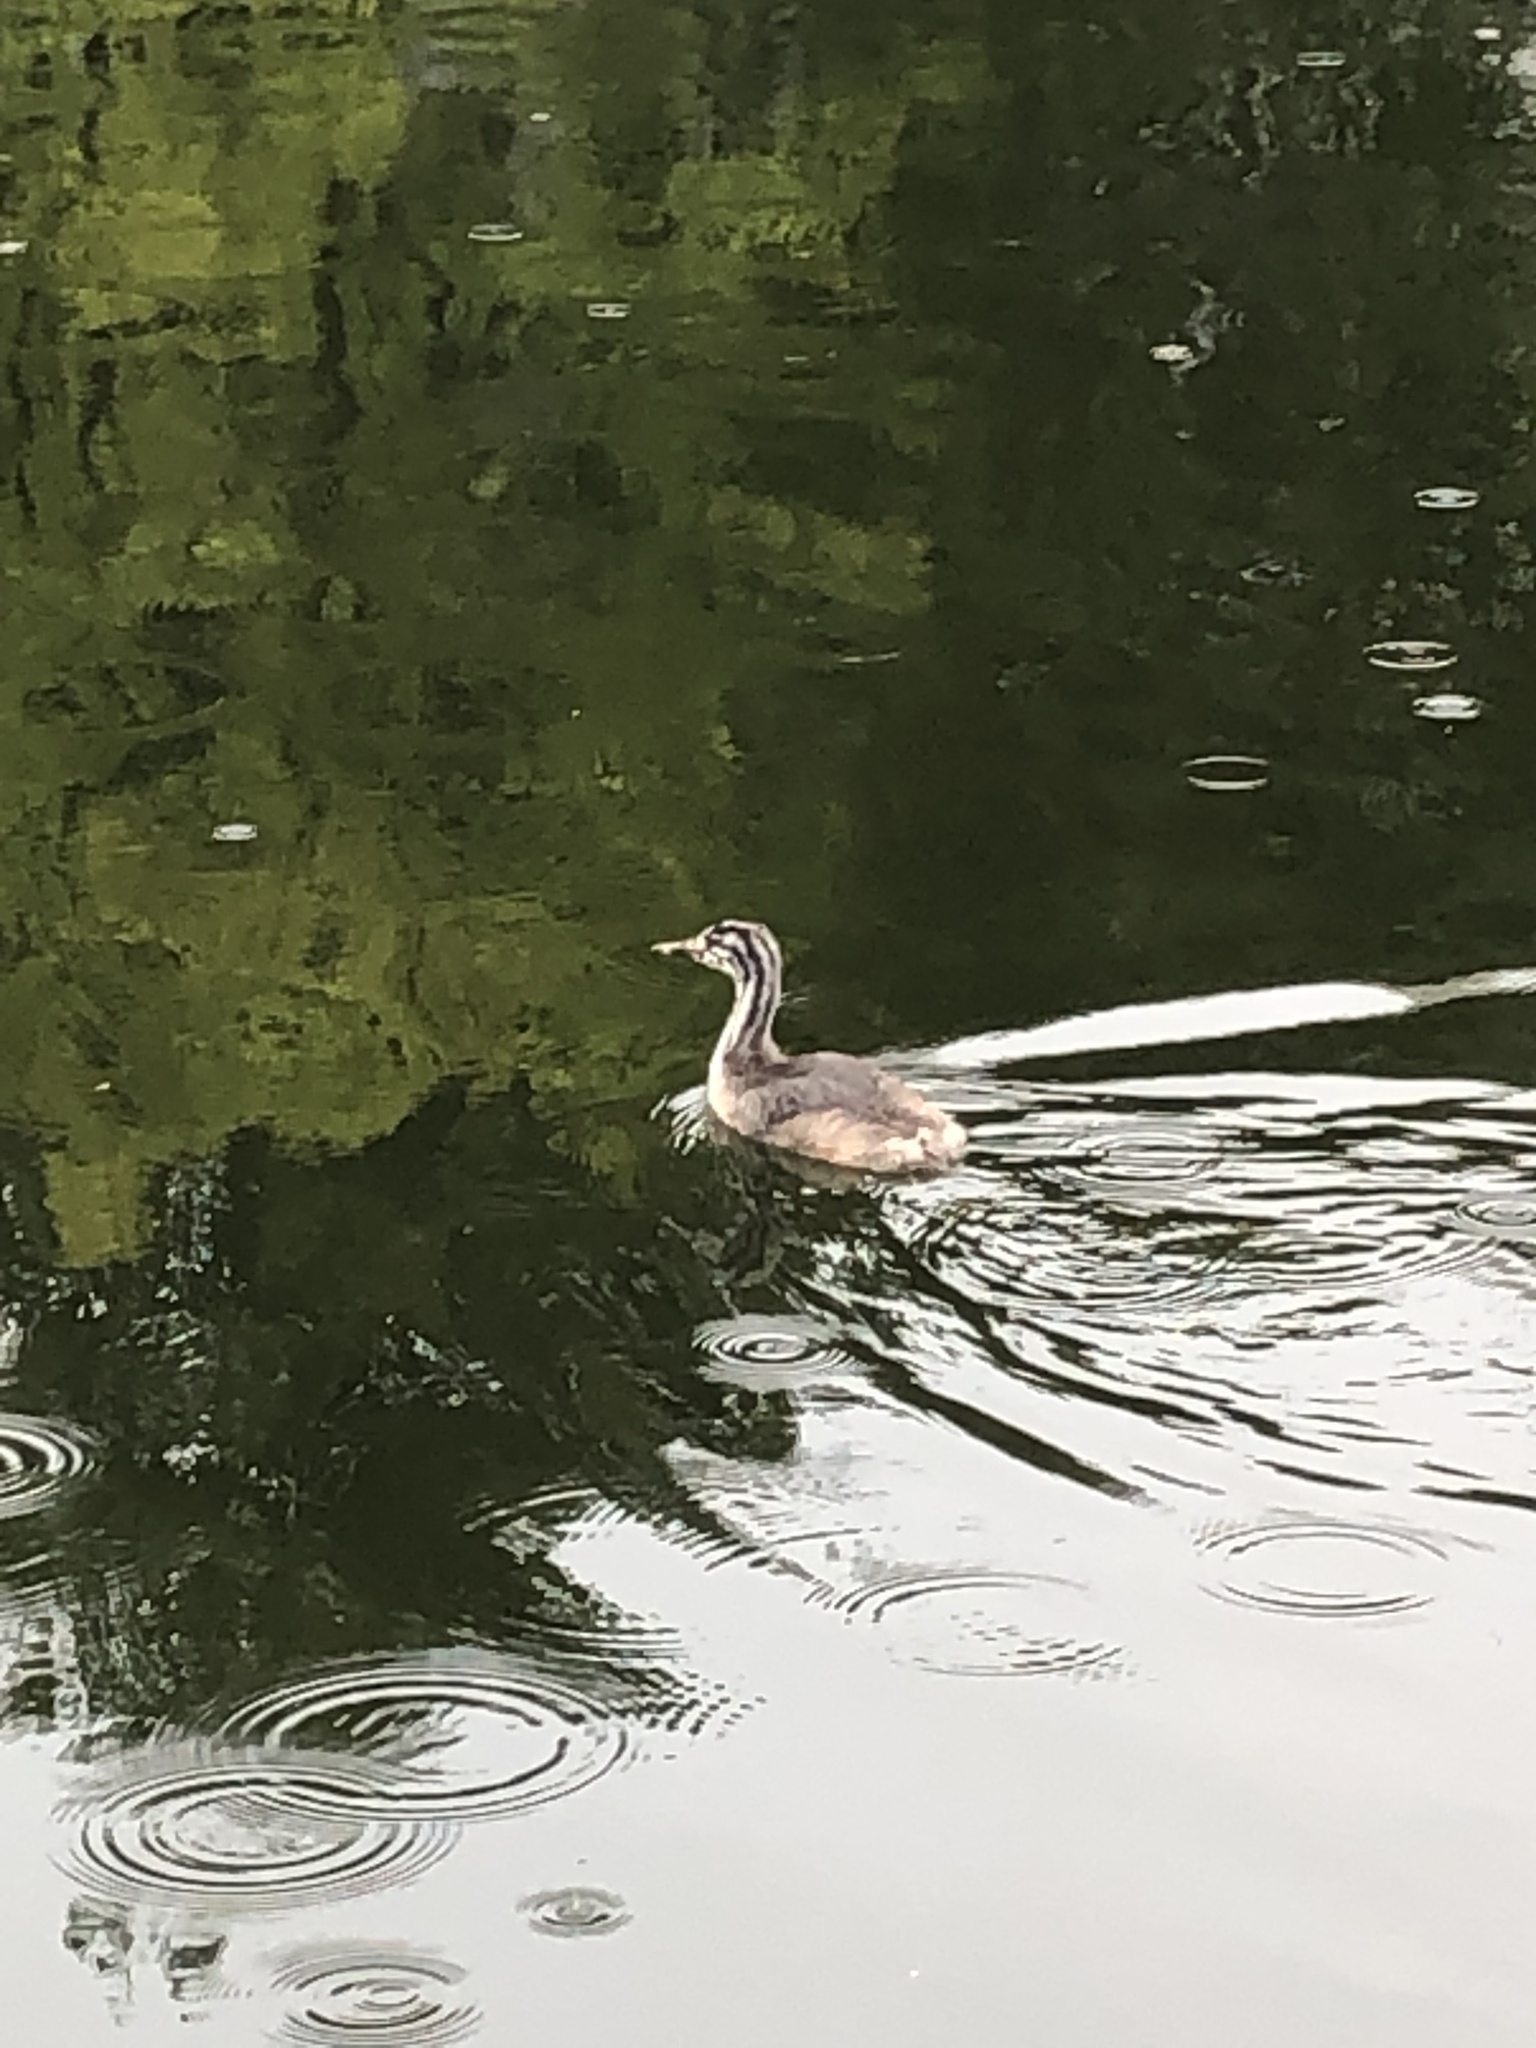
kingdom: Animalia
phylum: Chordata
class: Aves
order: Podicipediformes
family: Podicipedidae
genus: Podiceps
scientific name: Podiceps cristatus
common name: Great crested grebe
